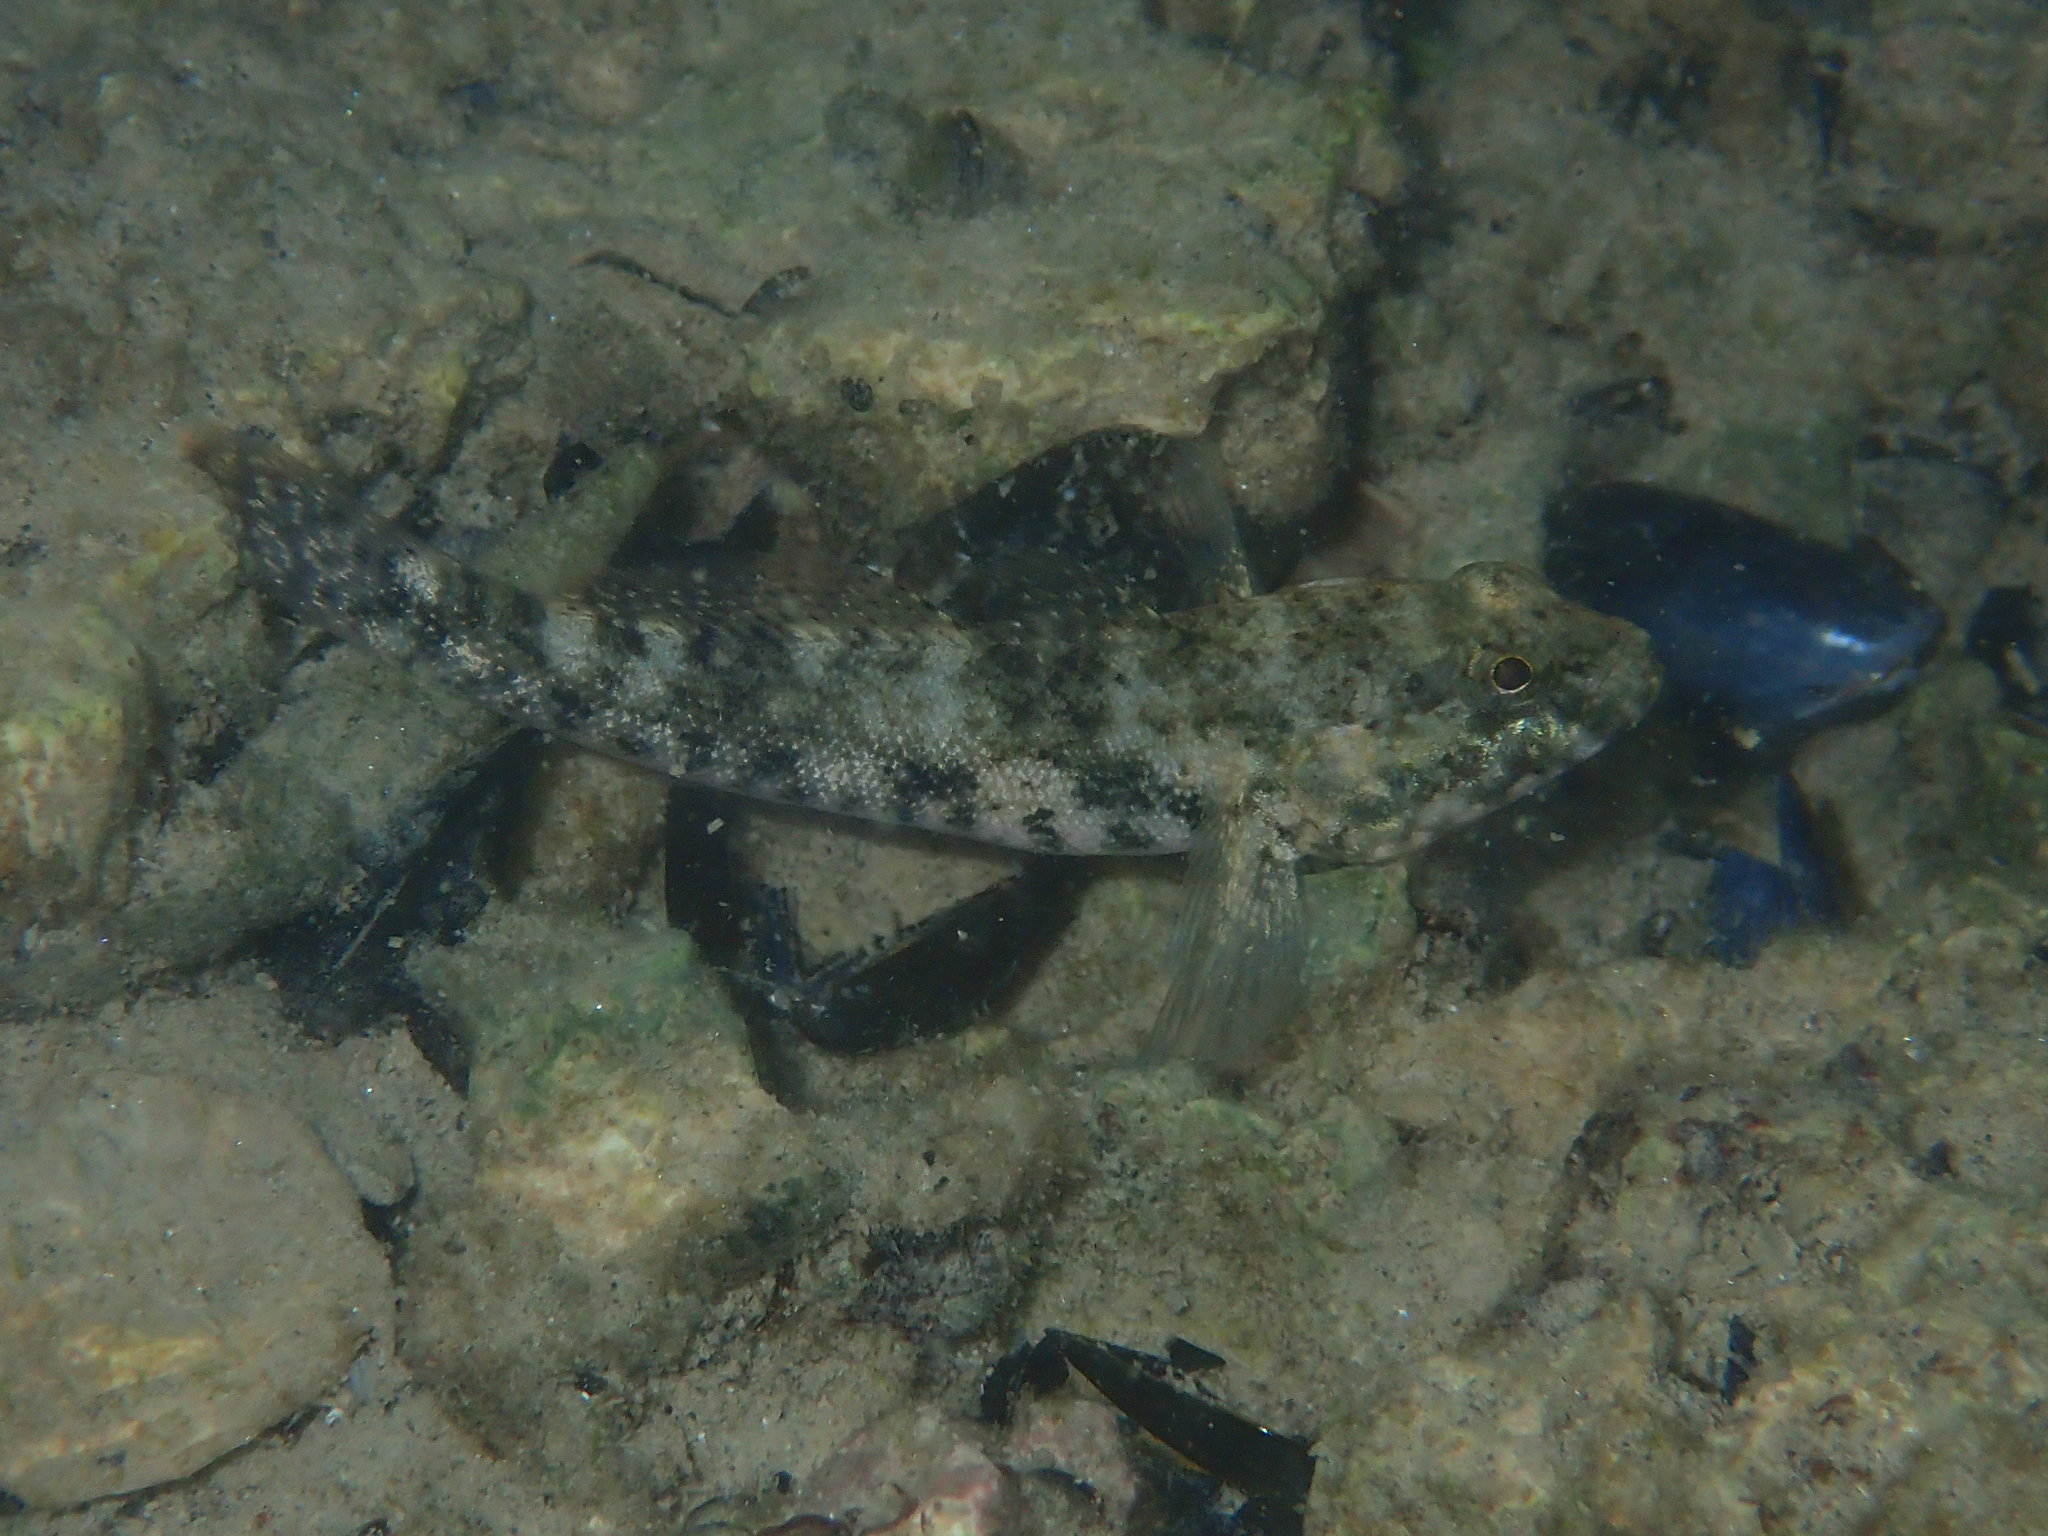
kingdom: Animalia
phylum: Chordata
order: Perciformes
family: Gobiidae
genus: Gobius
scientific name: Gobius cobitis
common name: Giant goby
